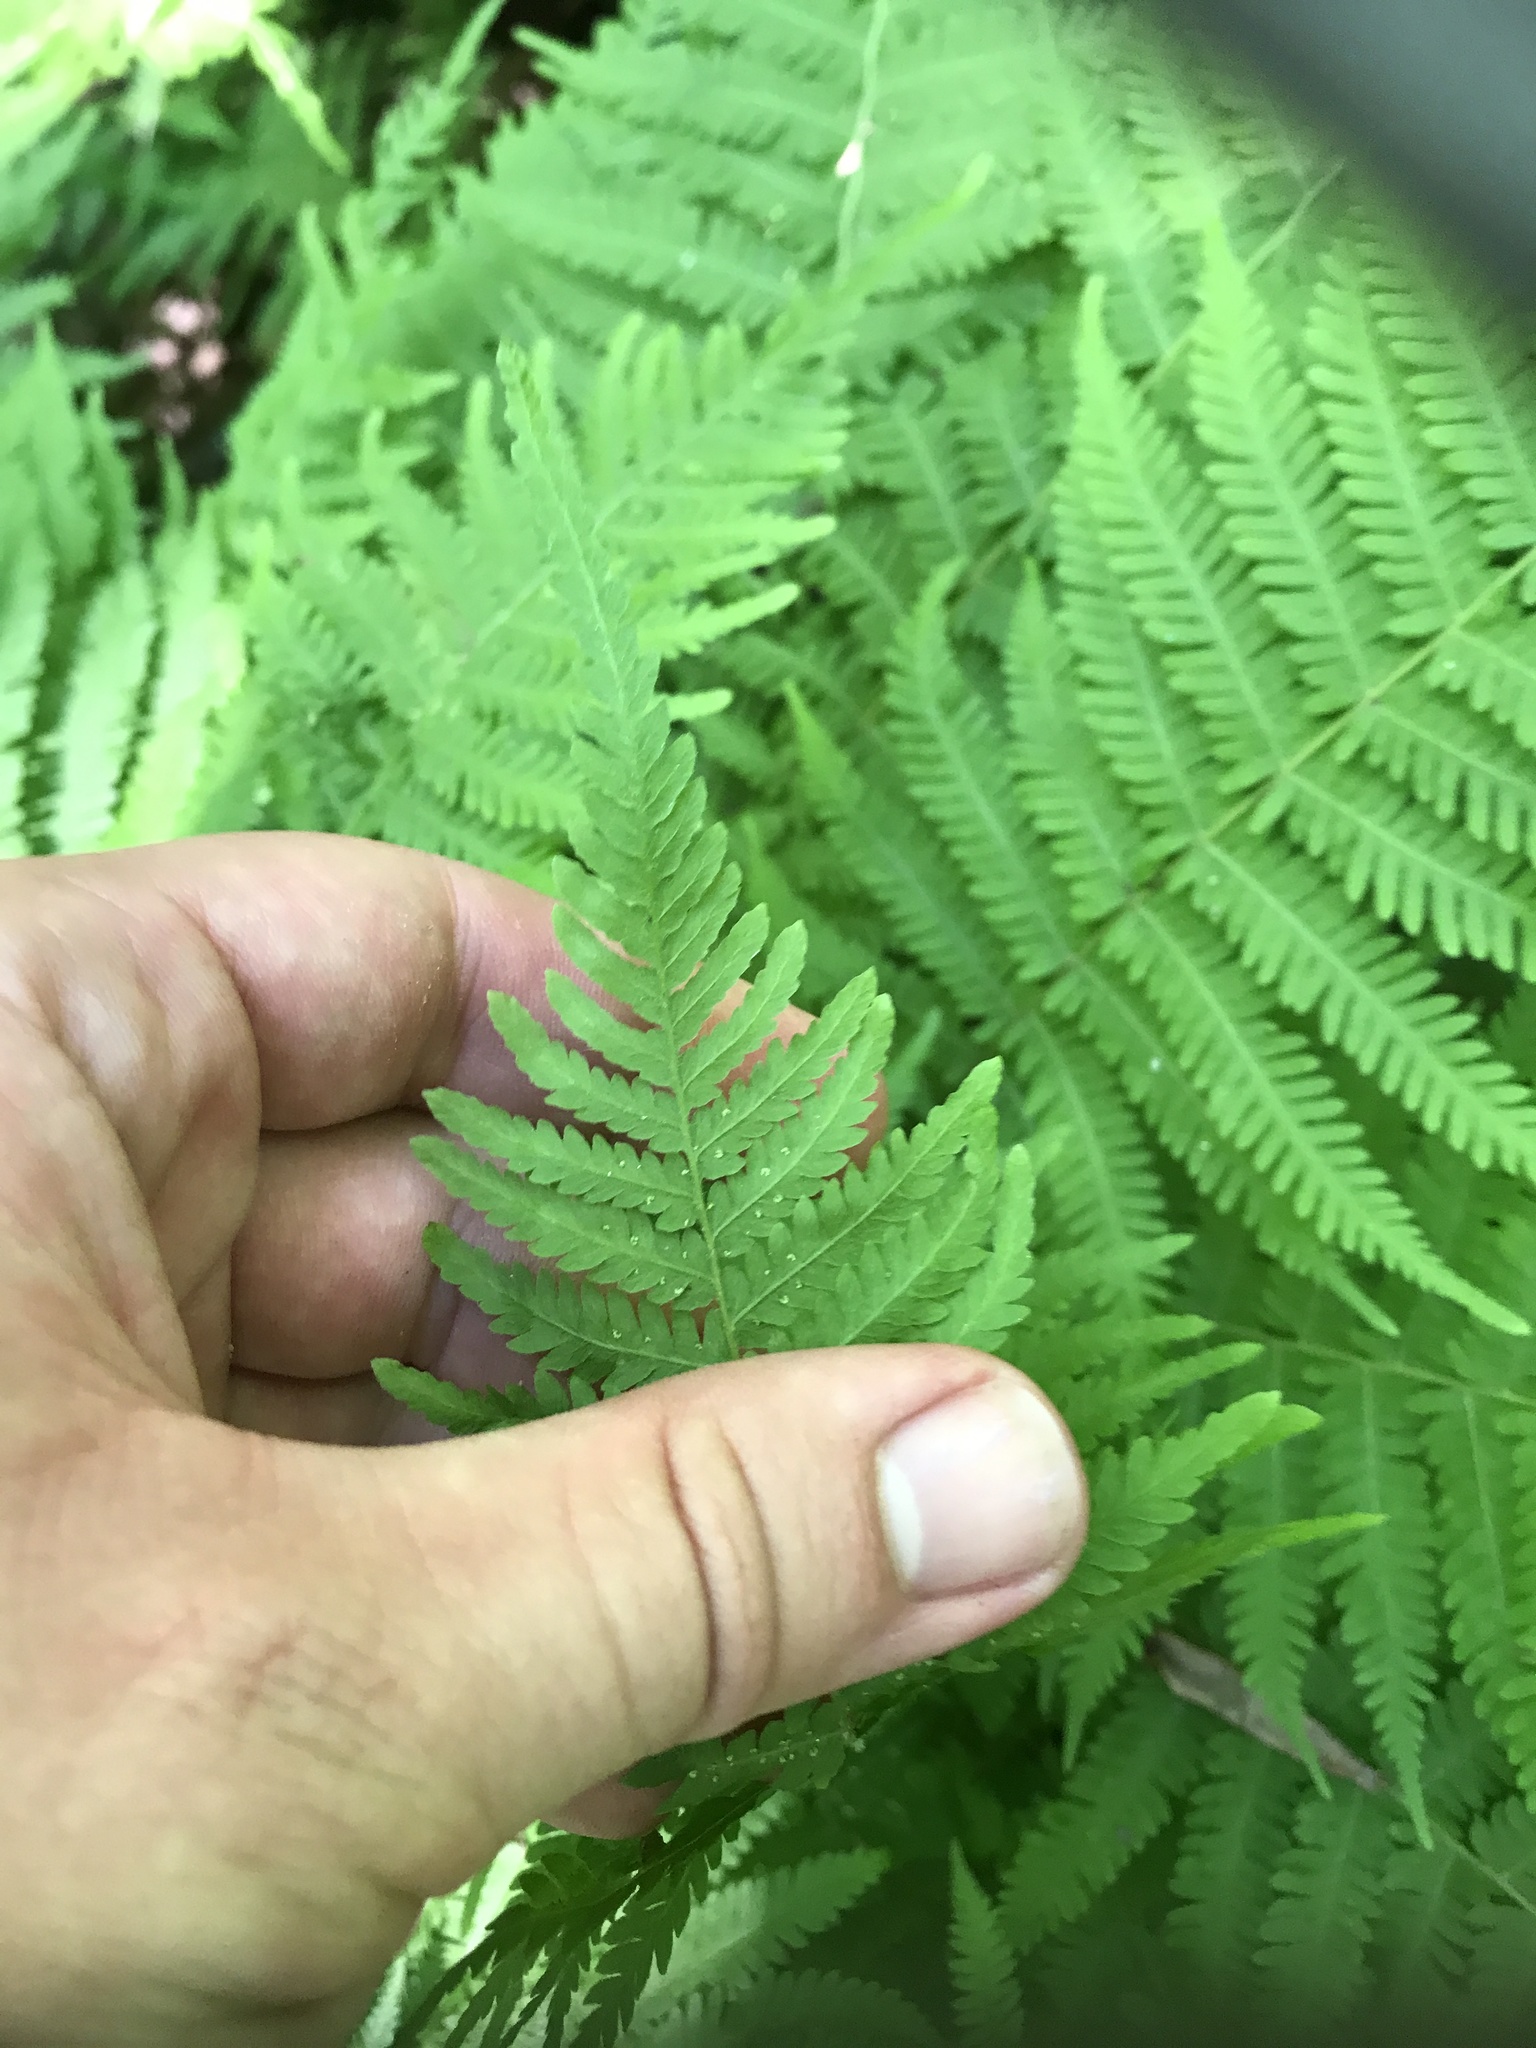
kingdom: Plantae
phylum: Tracheophyta
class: Polypodiopsida
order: Polypodiales
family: Thelypteridaceae
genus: Amauropelta
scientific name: Amauropelta noveboracensis
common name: New york fern
